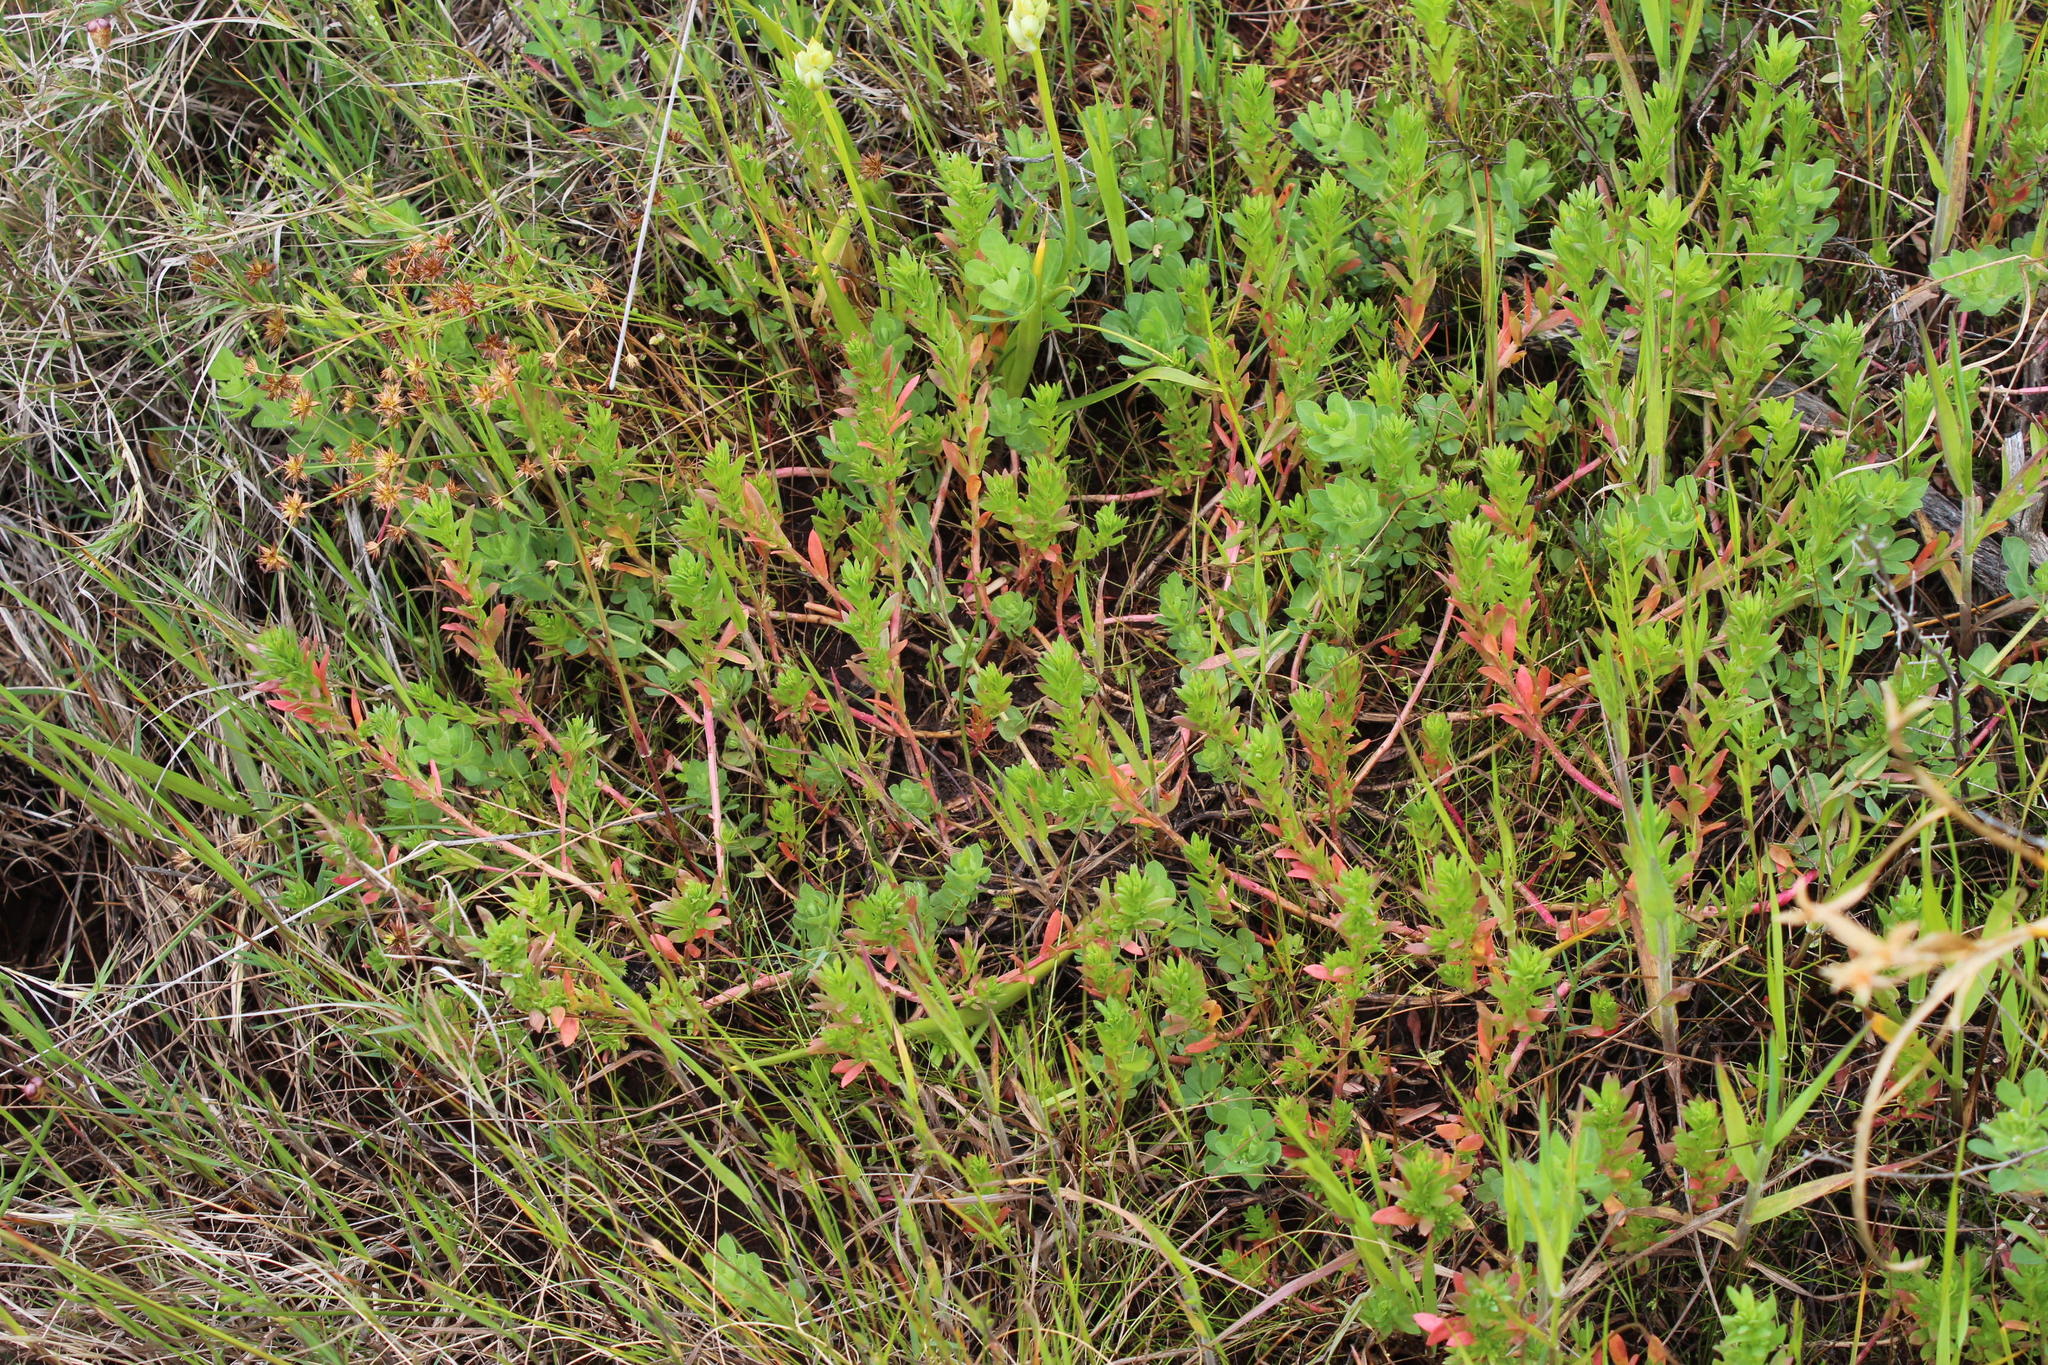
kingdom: Plantae
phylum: Tracheophyta
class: Magnoliopsida
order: Saxifragales
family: Haloragaceae
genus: Laurembergia
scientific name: Laurembergia repens
